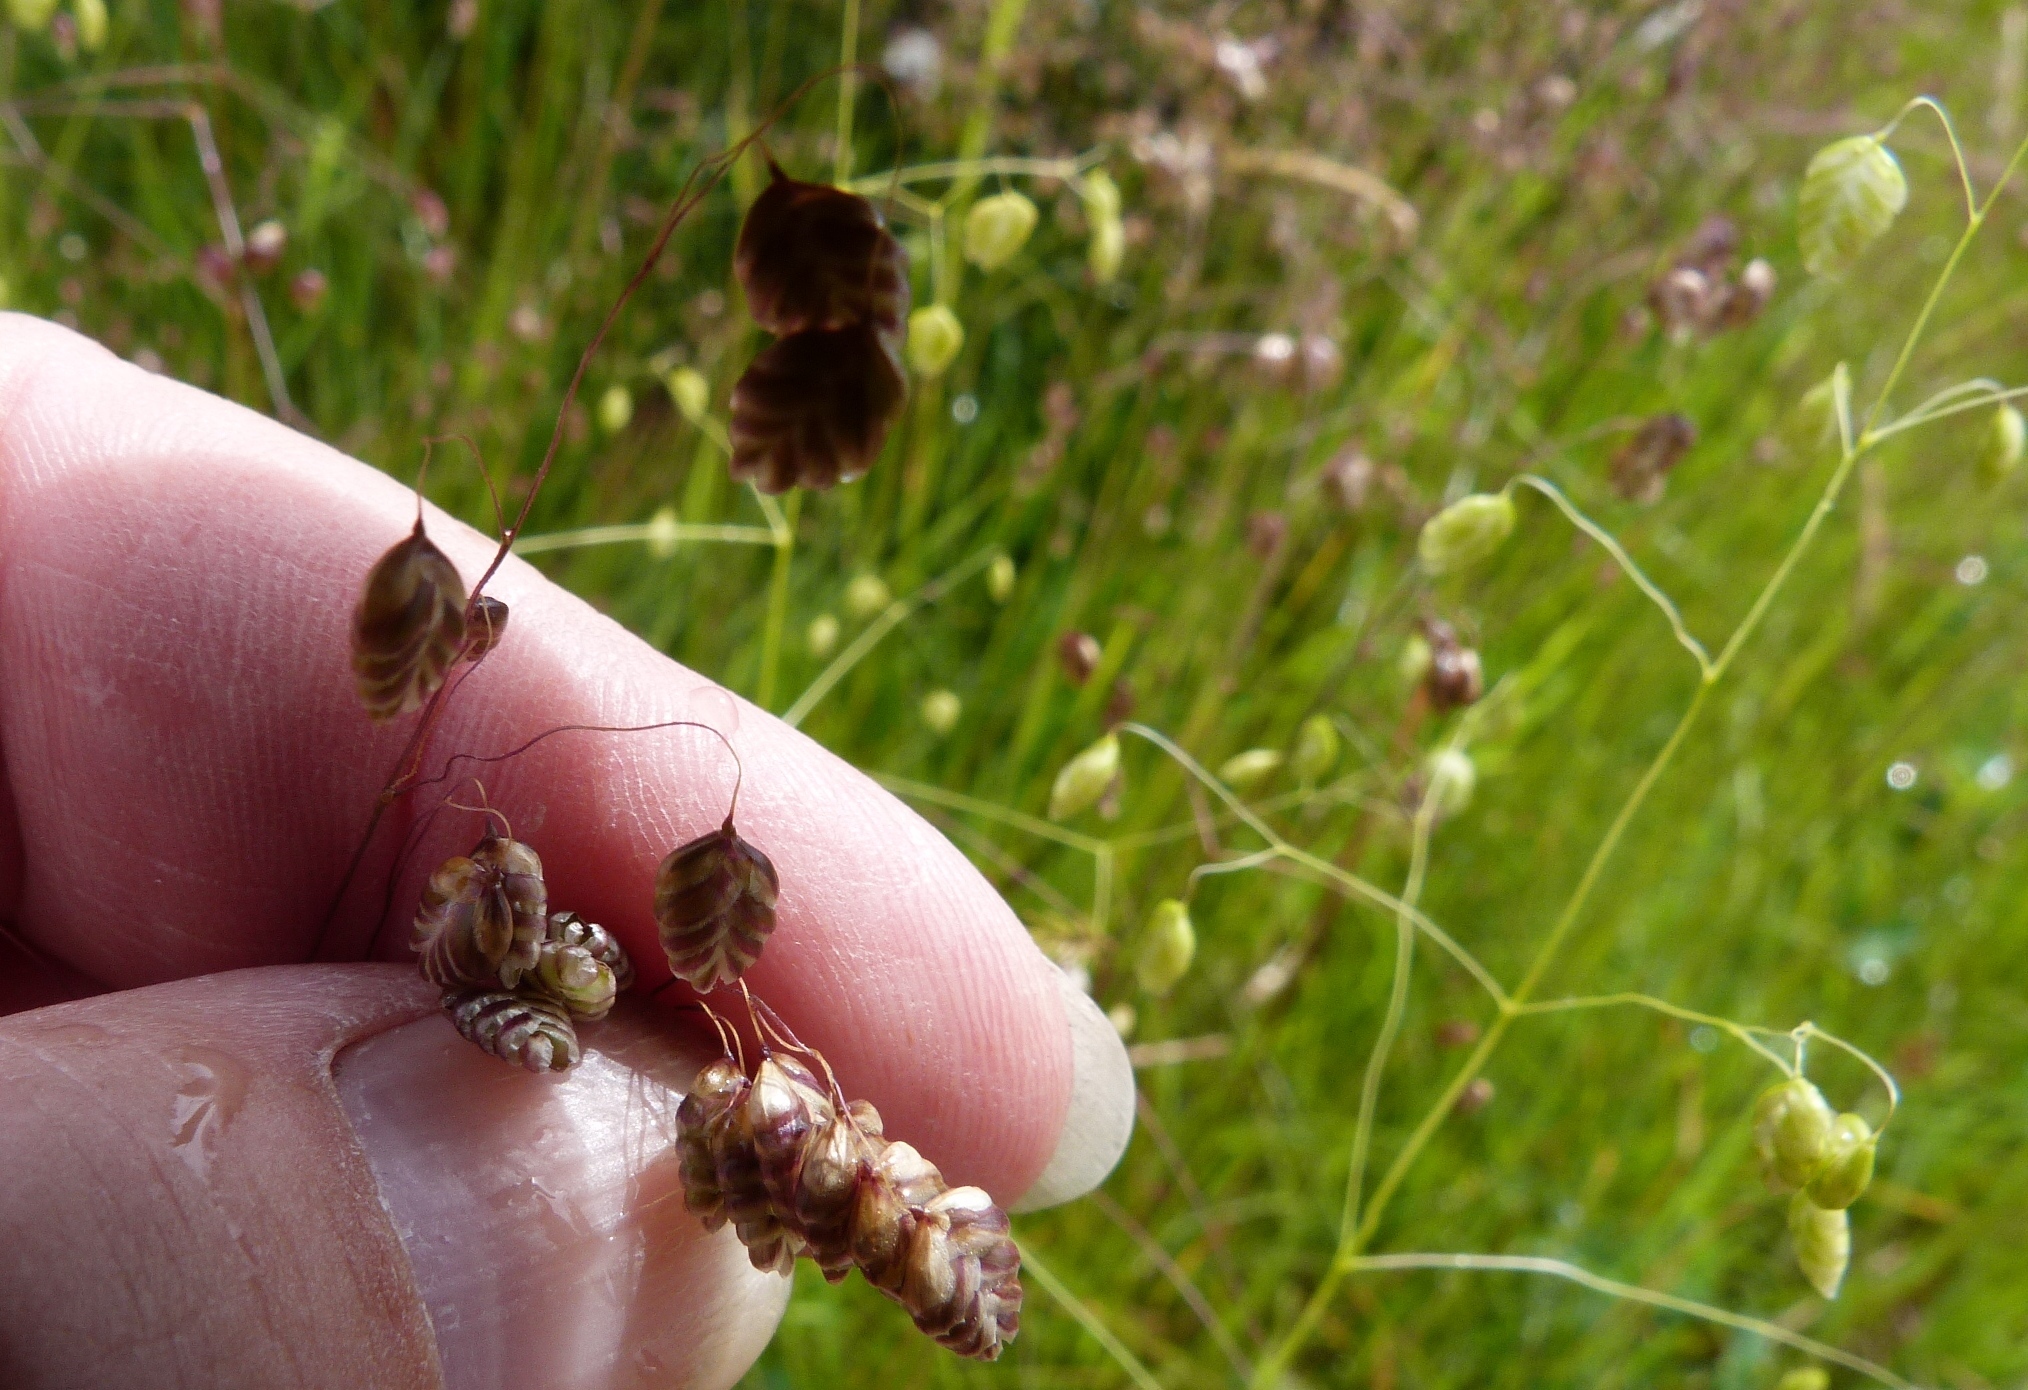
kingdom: Plantae
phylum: Tracheophyta
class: Liliopsida
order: Poales
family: Poaceae
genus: Briza
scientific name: Briza minor
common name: Lesser quaking-grass
